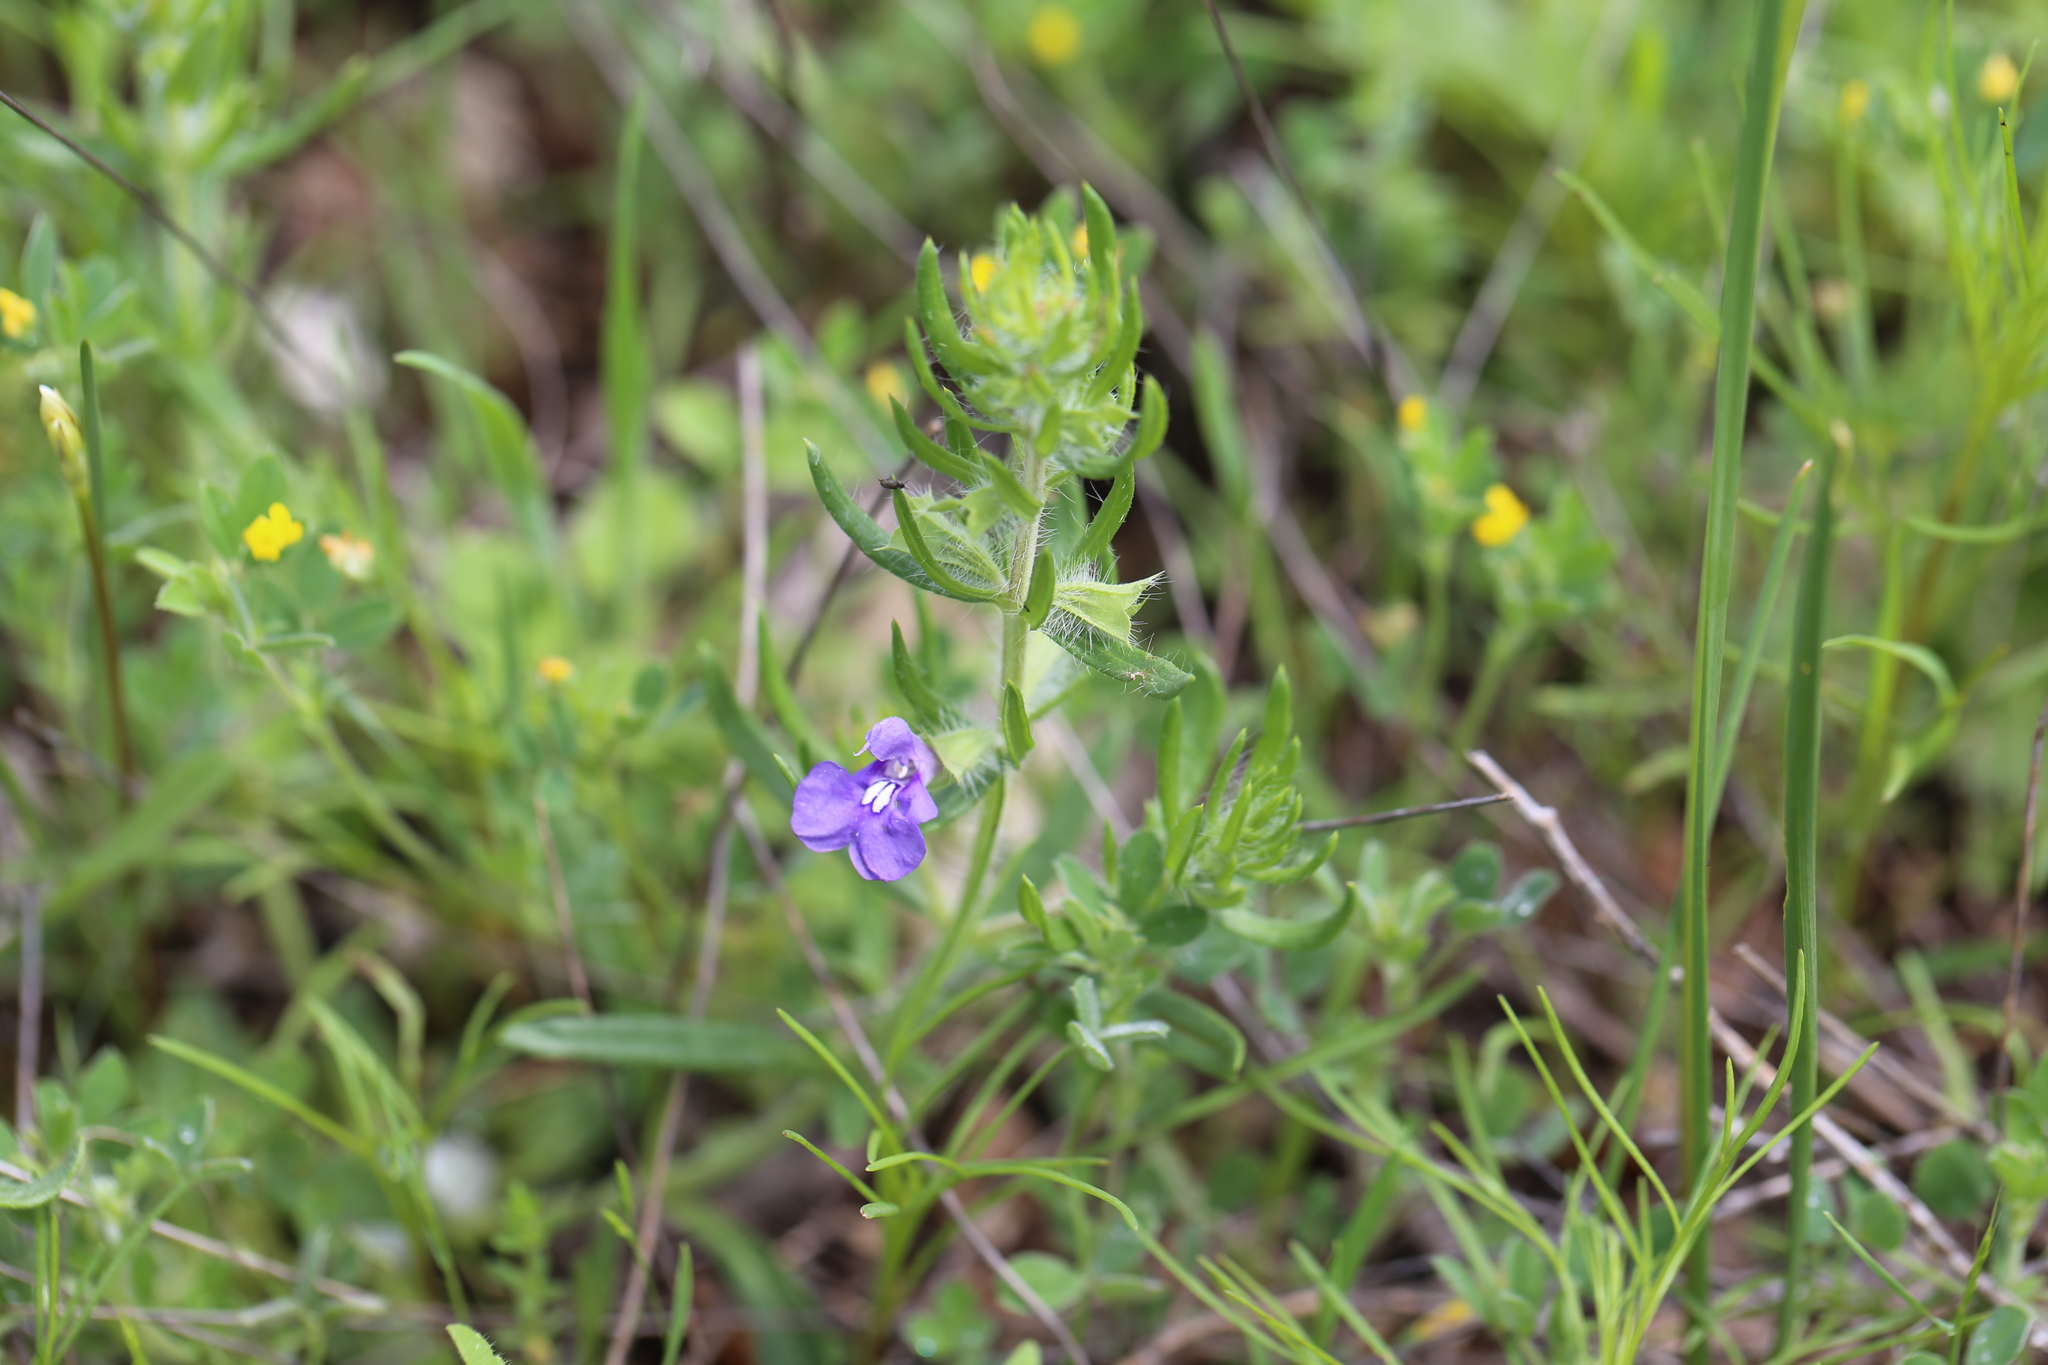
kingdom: Plantae
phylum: Tracheophyta
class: Magnoliopsida
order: Lamiales
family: Lamiaceae
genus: Salvia
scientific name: Salvia texana
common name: Texas sage
